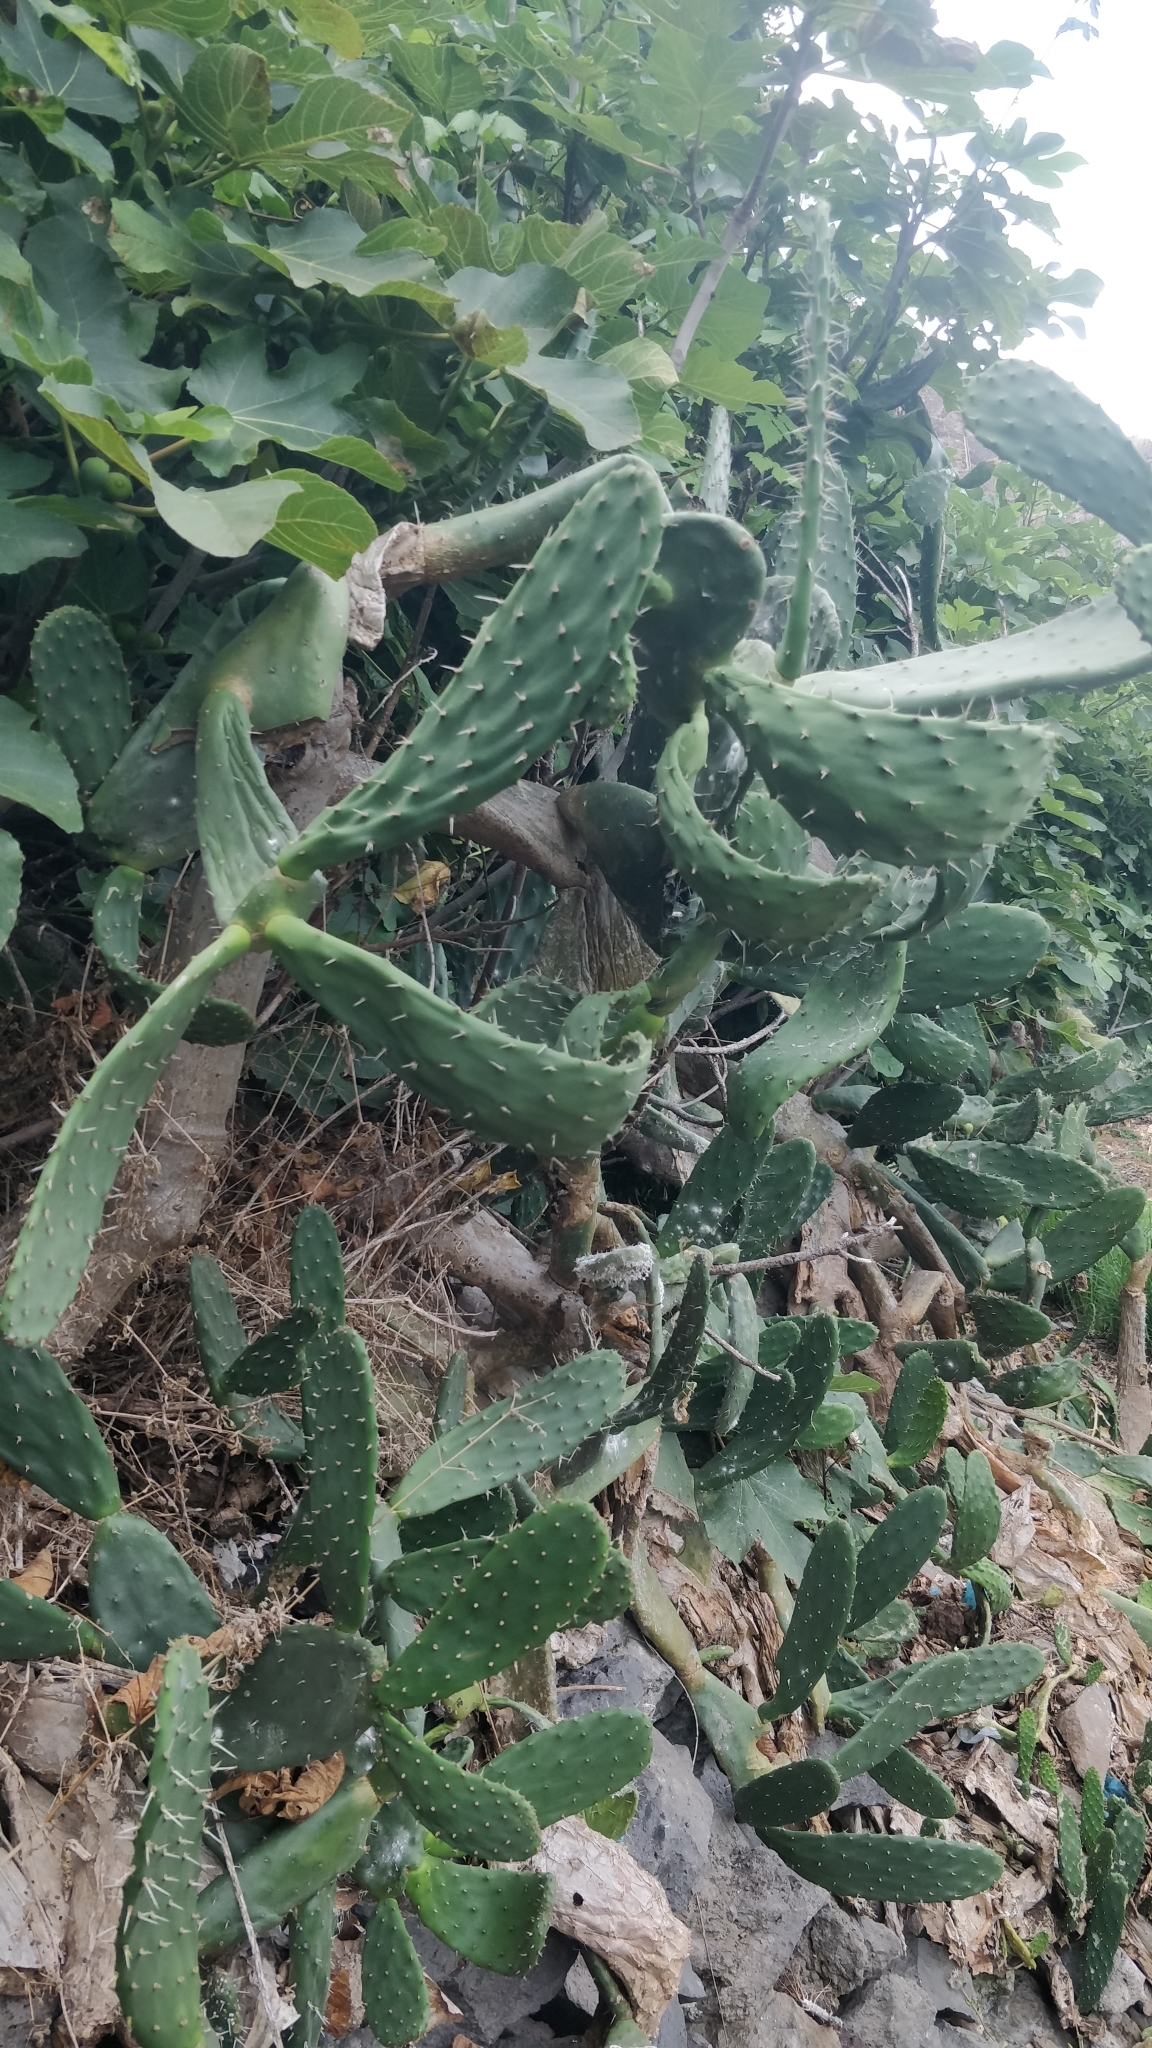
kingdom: Plantae
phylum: Tracheophyta
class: Magnoliopsida
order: Caryophyllales
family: Cactaceae
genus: Opuntia
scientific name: Opuntia ficus-indica
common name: Barbary fig
